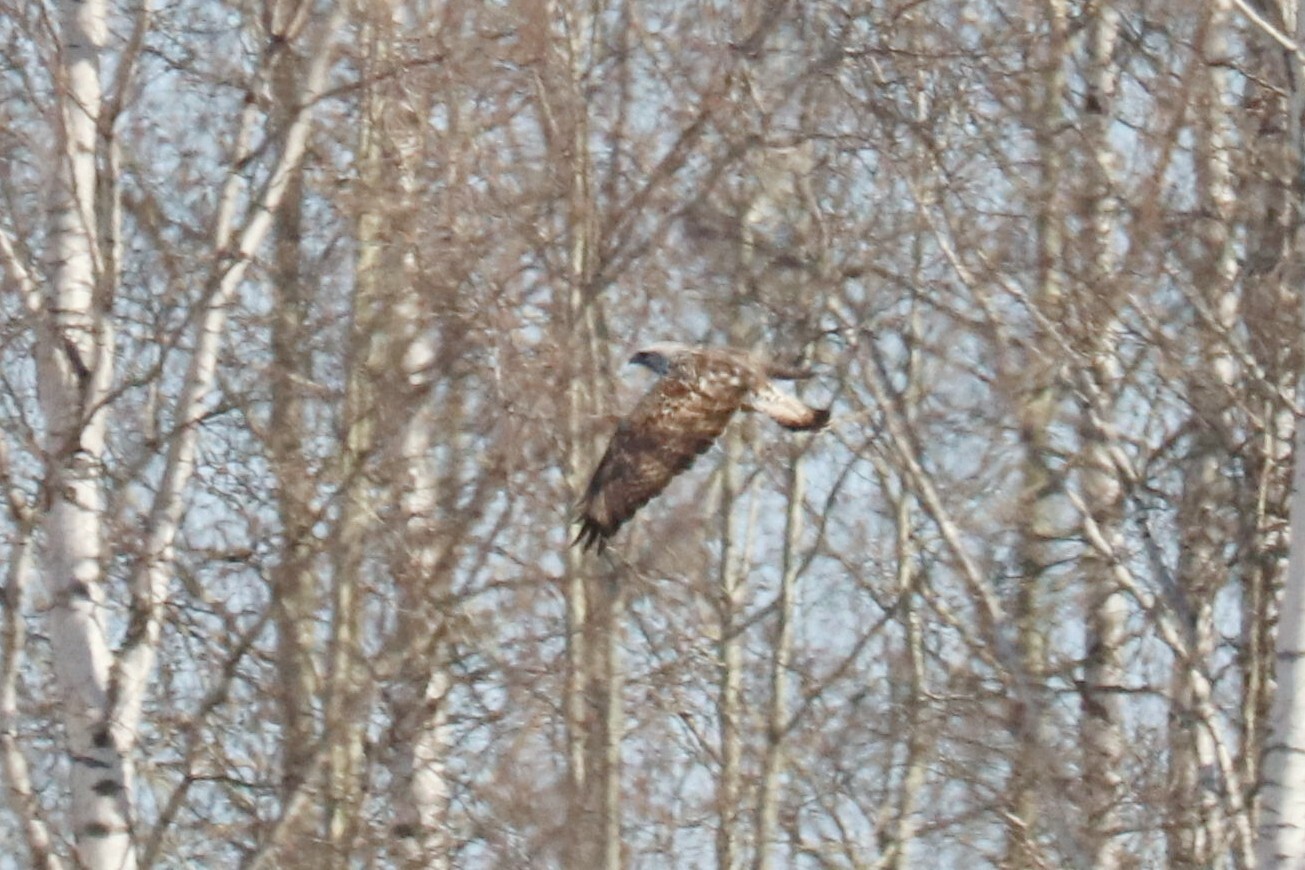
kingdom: Animalia
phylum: Chordata
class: Aves
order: Accipitriformes
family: Accipitridae
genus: Buteo
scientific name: Buteo lagopus
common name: Rough-legged buzzard
